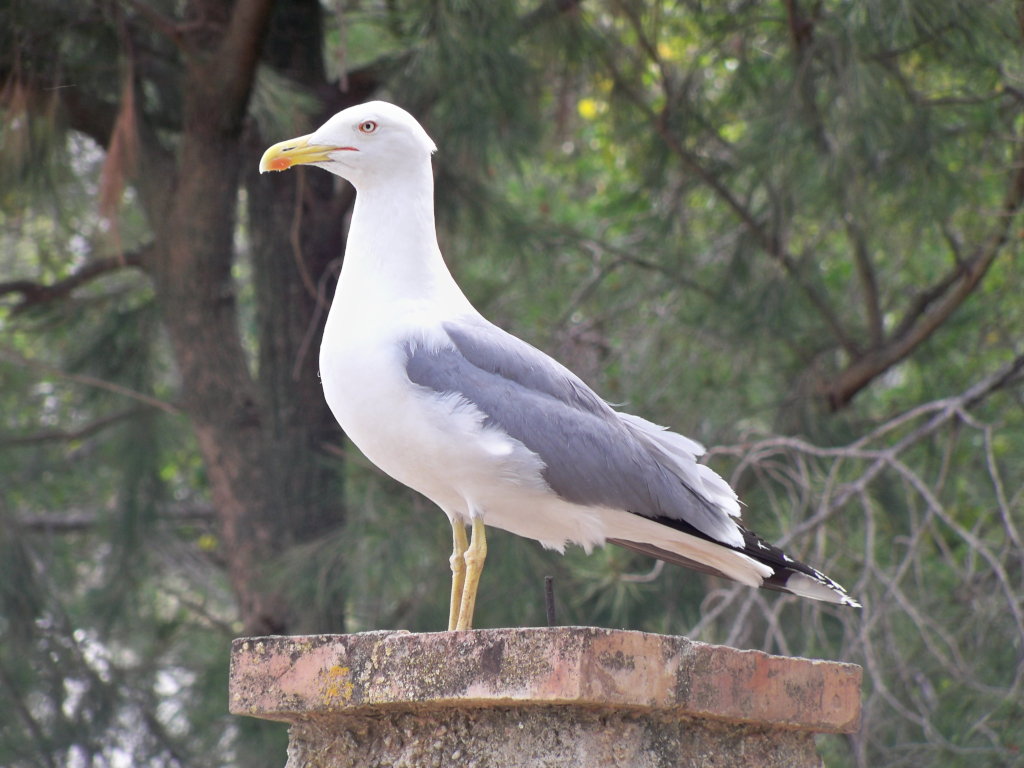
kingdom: Animalia
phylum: Chordata
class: Aves
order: Charadriiformes
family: Laridae
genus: Larus
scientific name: Larus michahellis
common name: Yellow-legged gull
